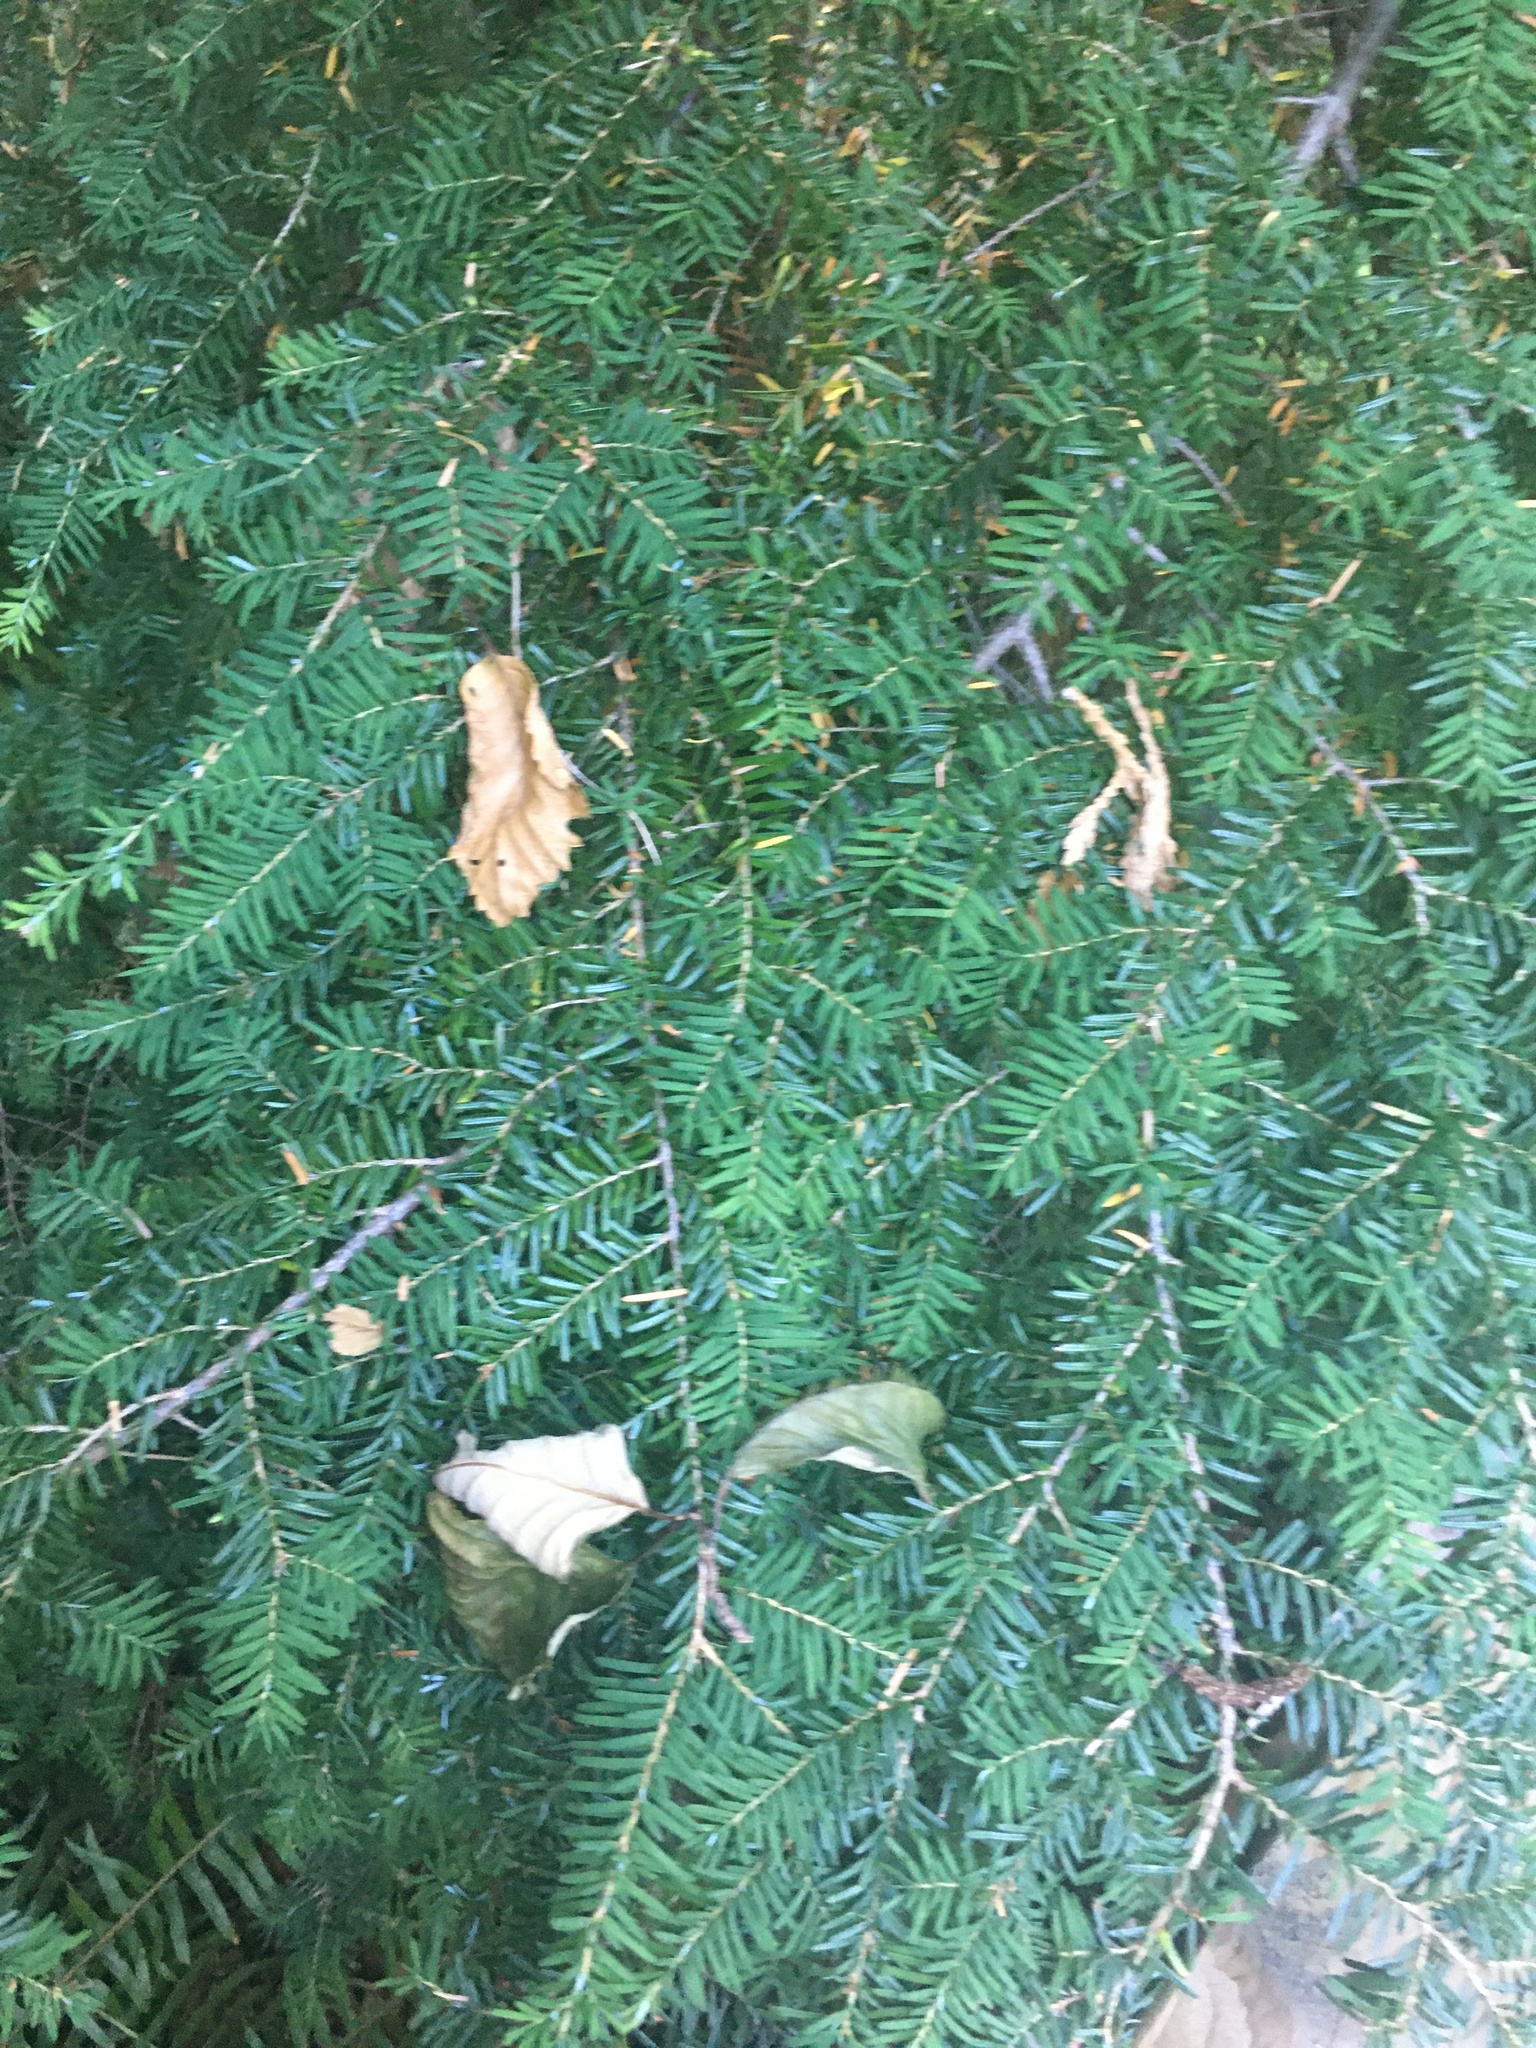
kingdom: Plantae
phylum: Tracheophyta
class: Pinopsida
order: Pinales
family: Pinaceae
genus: Tsuga
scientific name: Tsuga heterophylla
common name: Western hemlock
